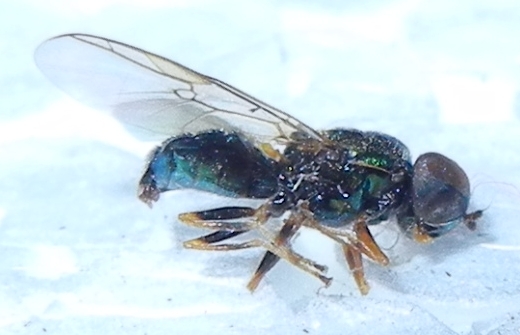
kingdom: Animalia
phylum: Arthropoda
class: Insecta
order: Diptera
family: Stratiomyidae
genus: Microchrysa
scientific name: Microchrysa flavicornis
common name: Soldier fly
